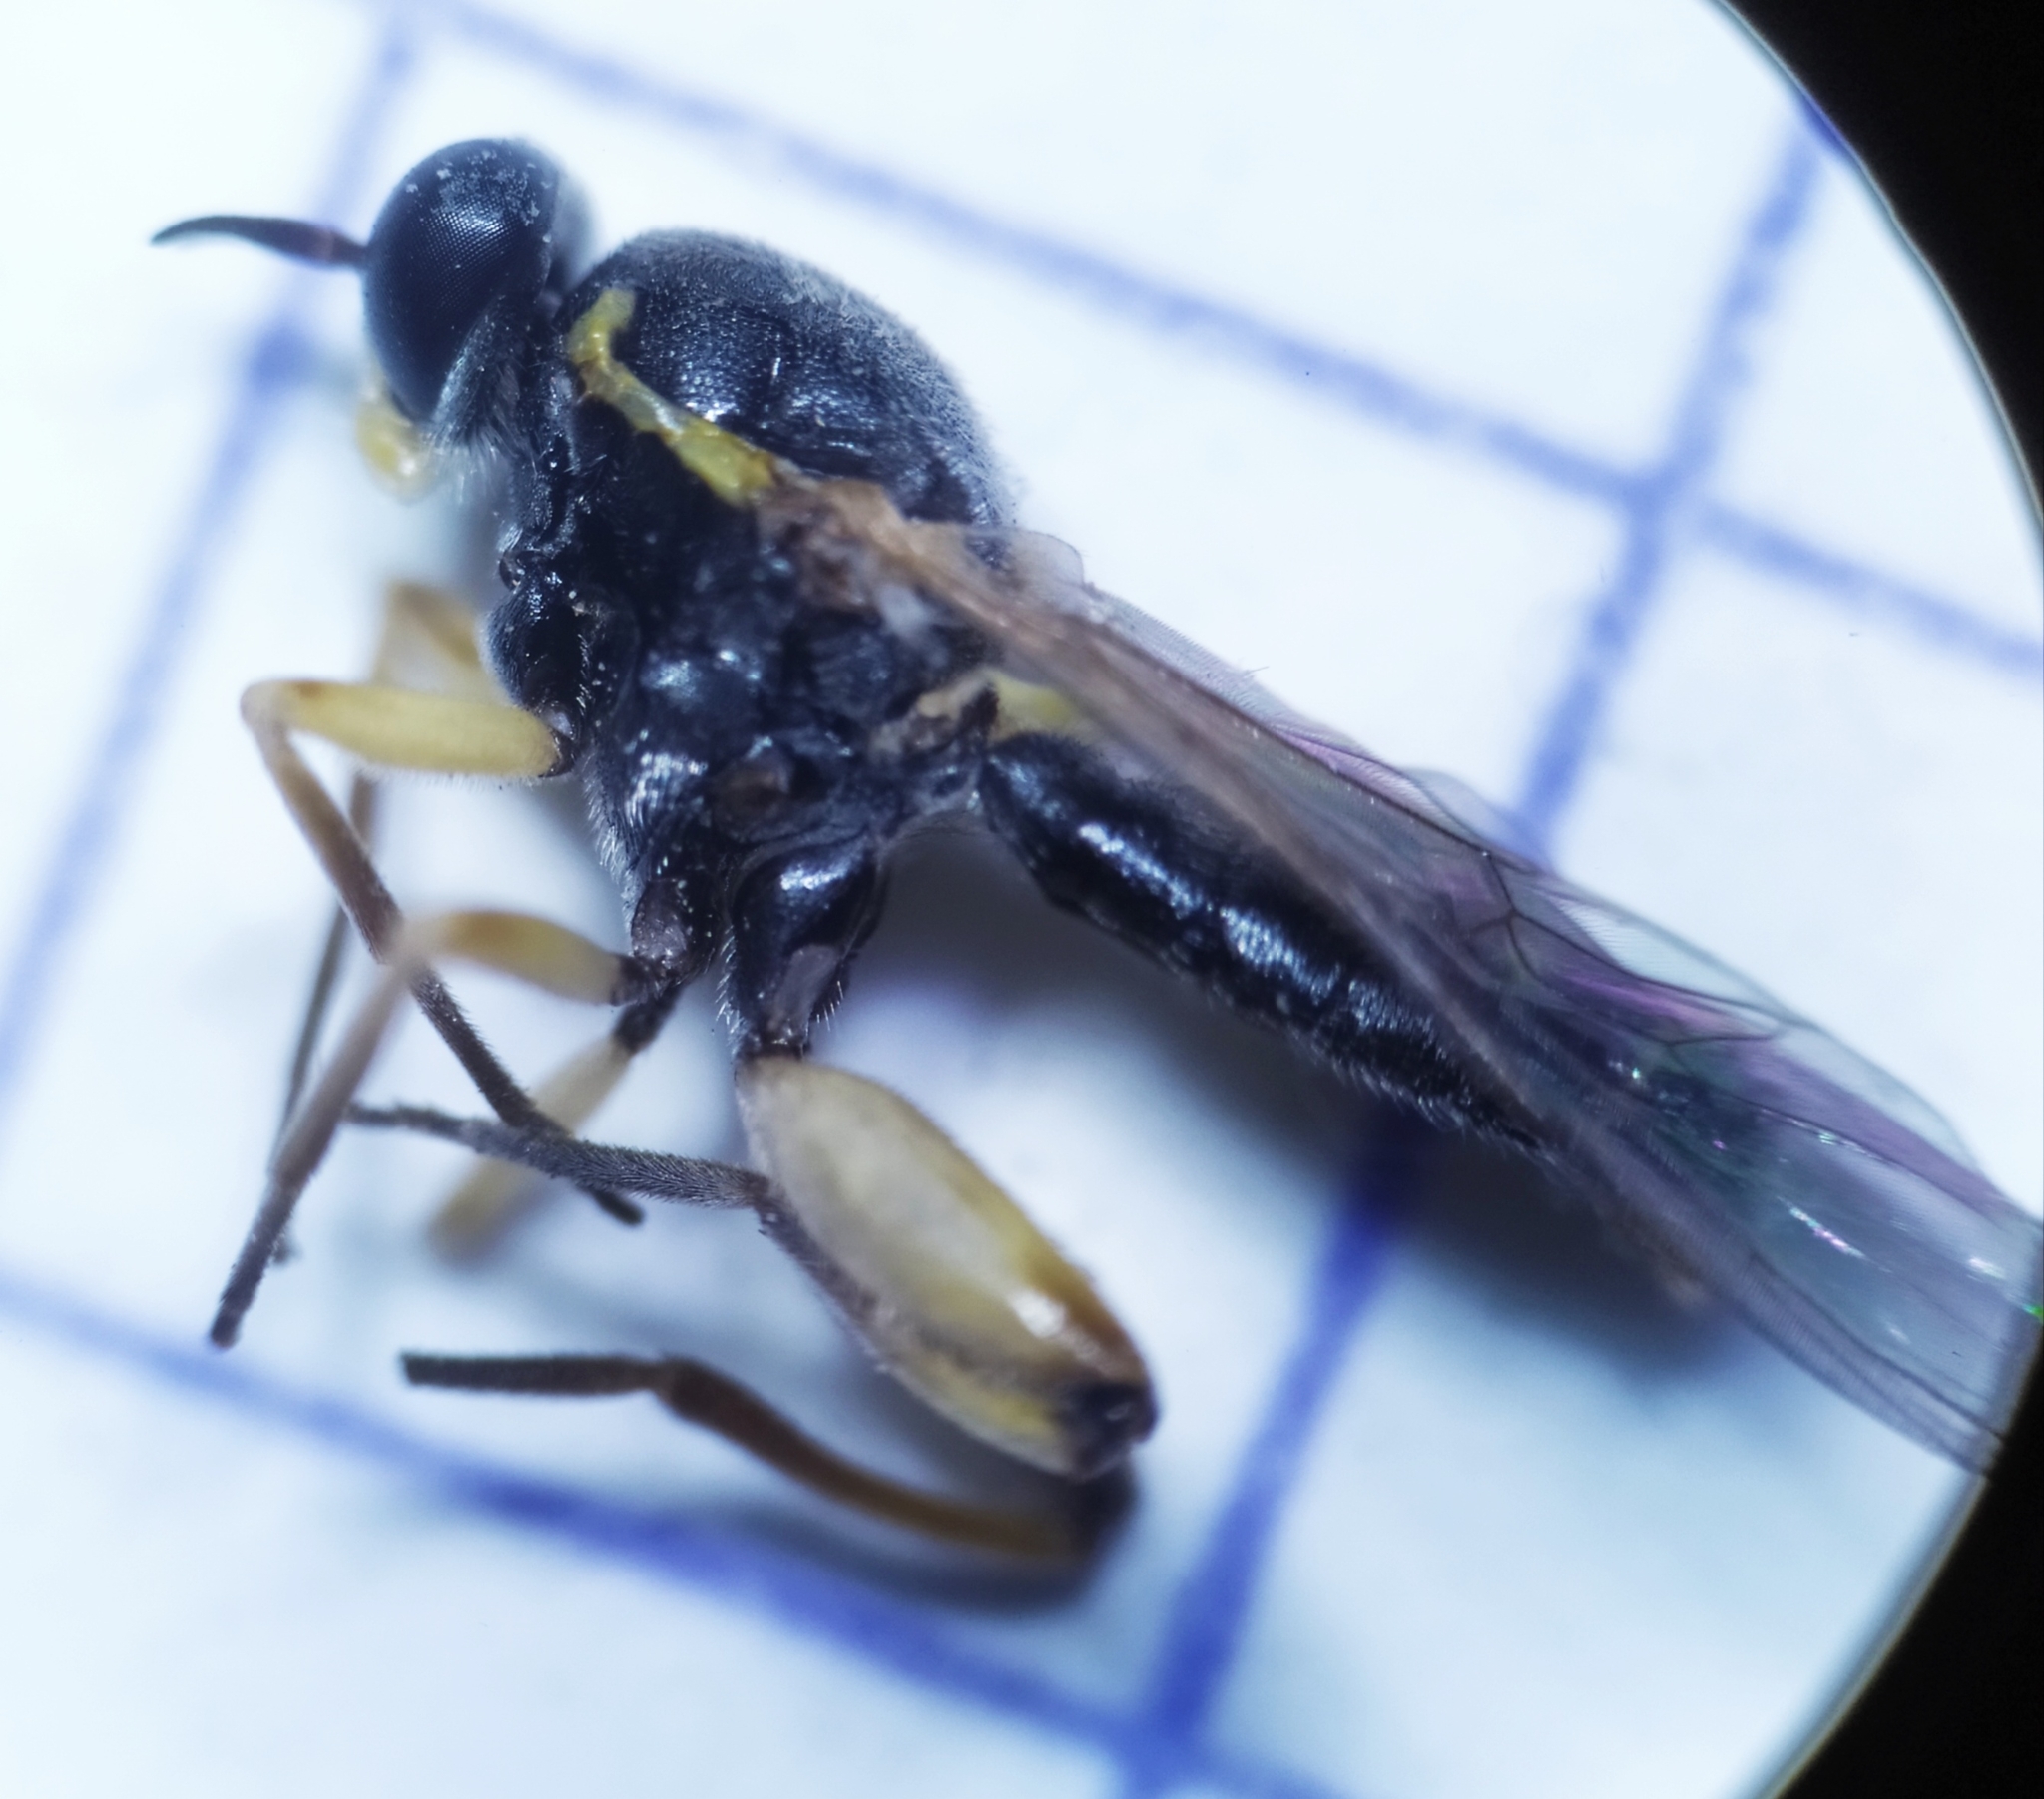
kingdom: Animalia
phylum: Arthropoda
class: Insecta
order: Diptera
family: Xylomyidae
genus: Solva
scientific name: Solva marginata
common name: Drab wood-soldierfly
